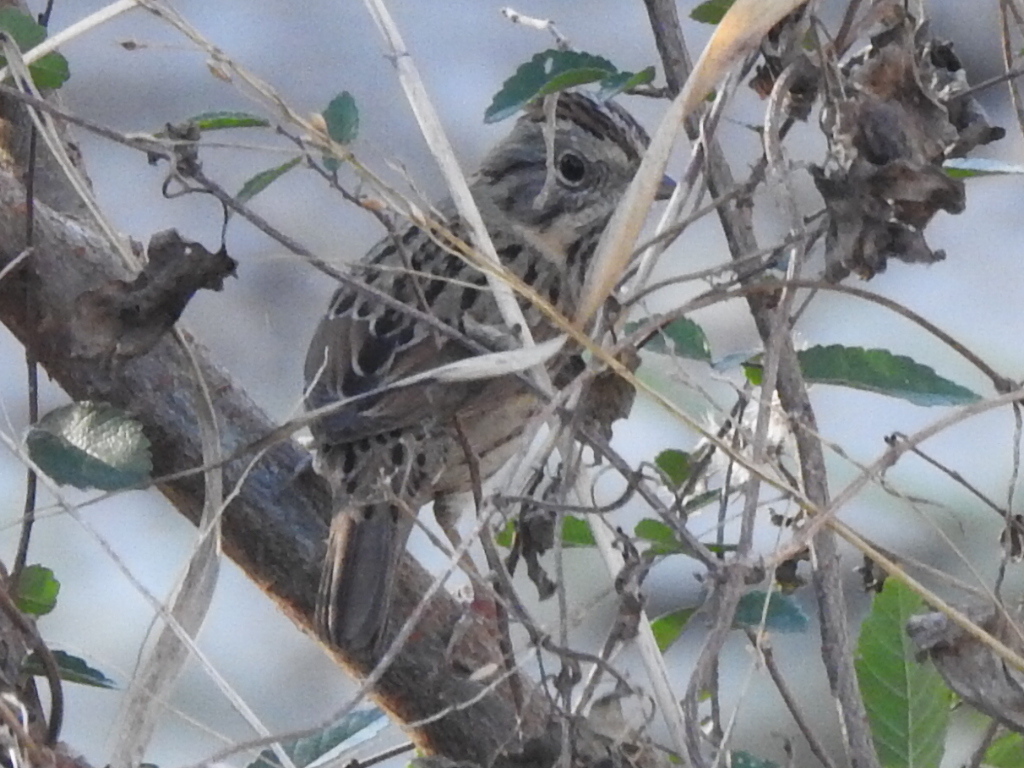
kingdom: Animalia
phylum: Chordata
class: Aves
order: Passeriformes
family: Passerellidae
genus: Melospiza
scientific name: Melospiza lincolnii
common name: Lincoln's sparrow
